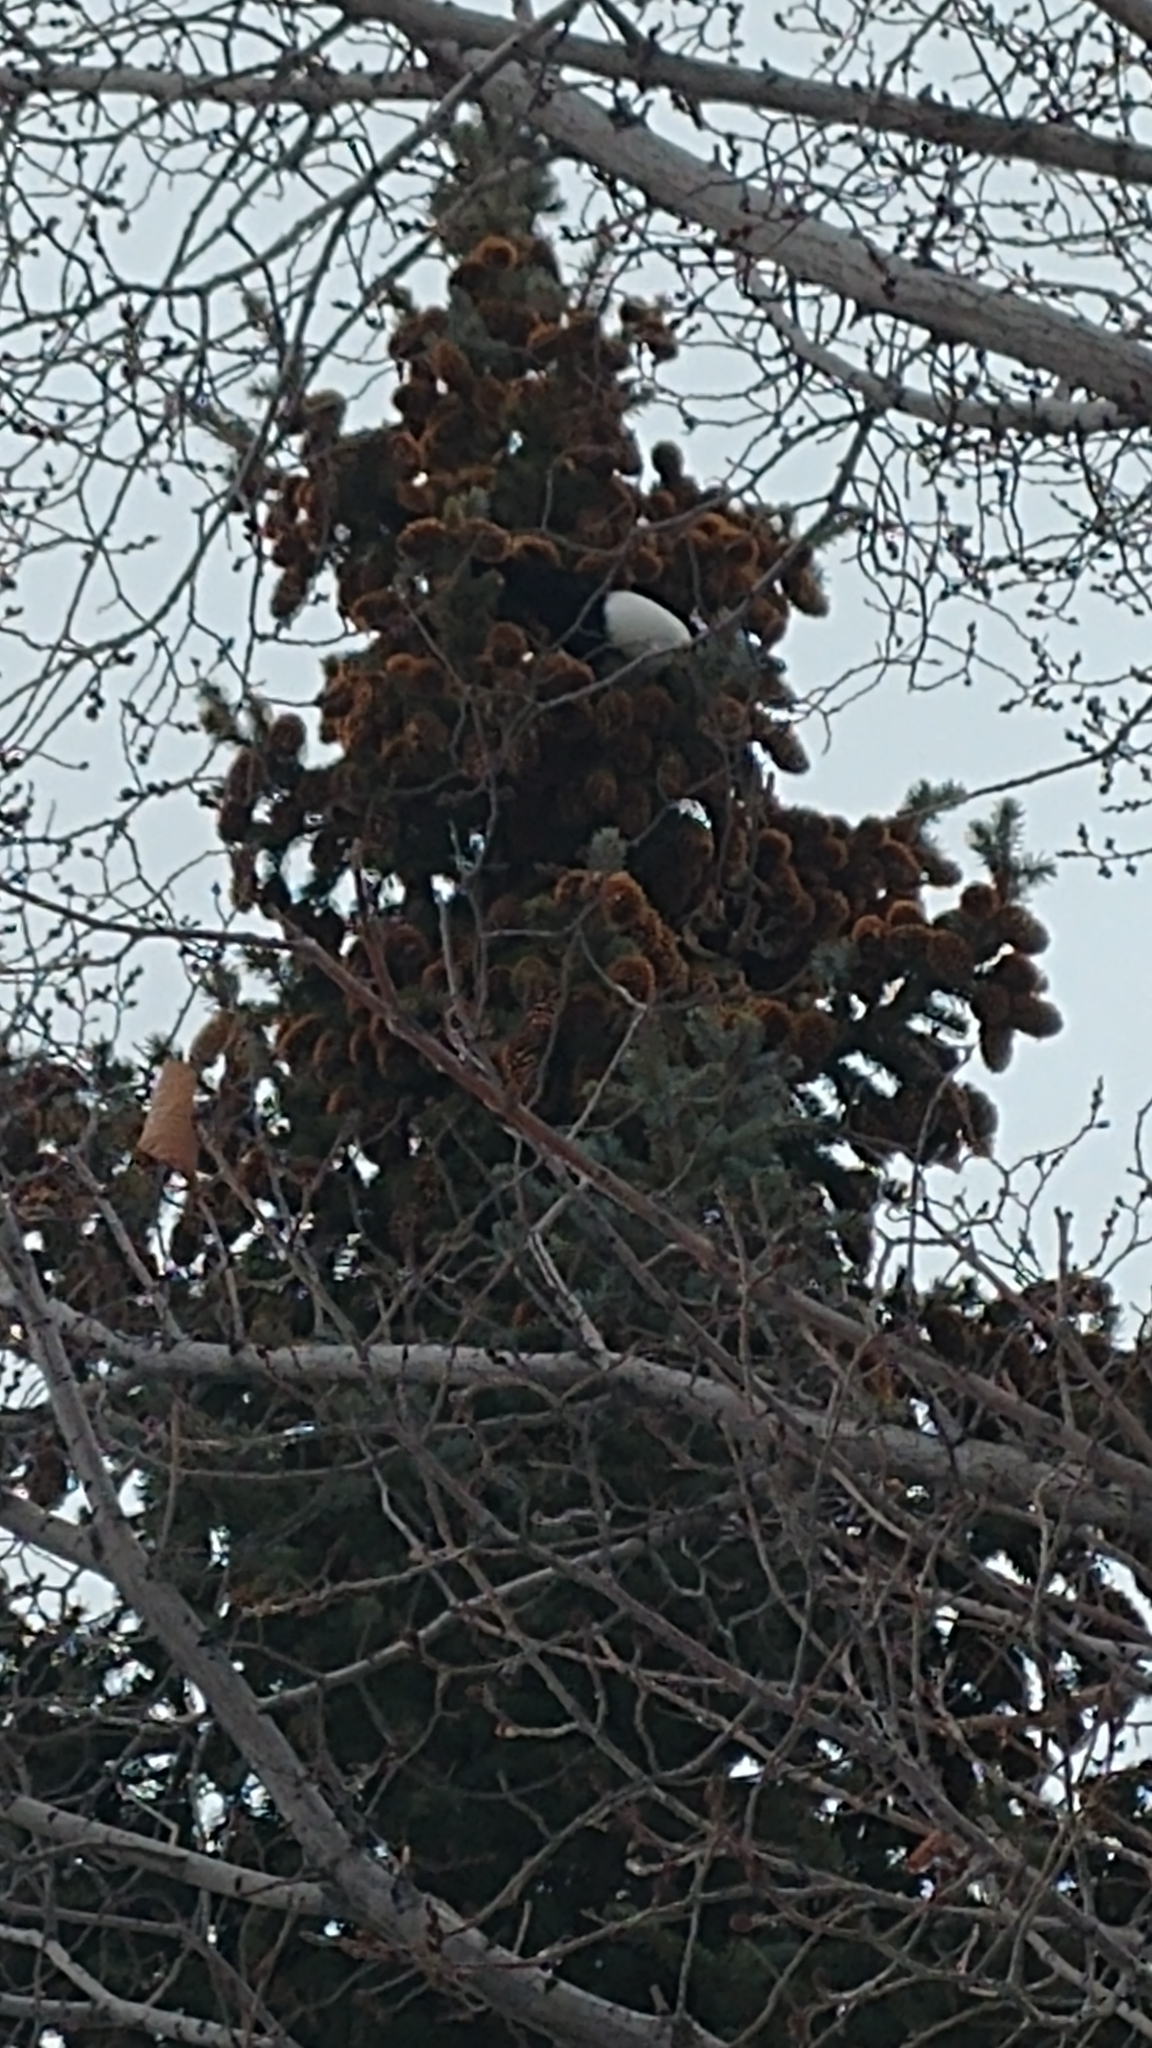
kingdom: Animalia
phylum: Chordata
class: Aves
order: Passeriformes
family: Corvidae
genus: Pica
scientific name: Pica hudsonia
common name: Black-billed magpie
